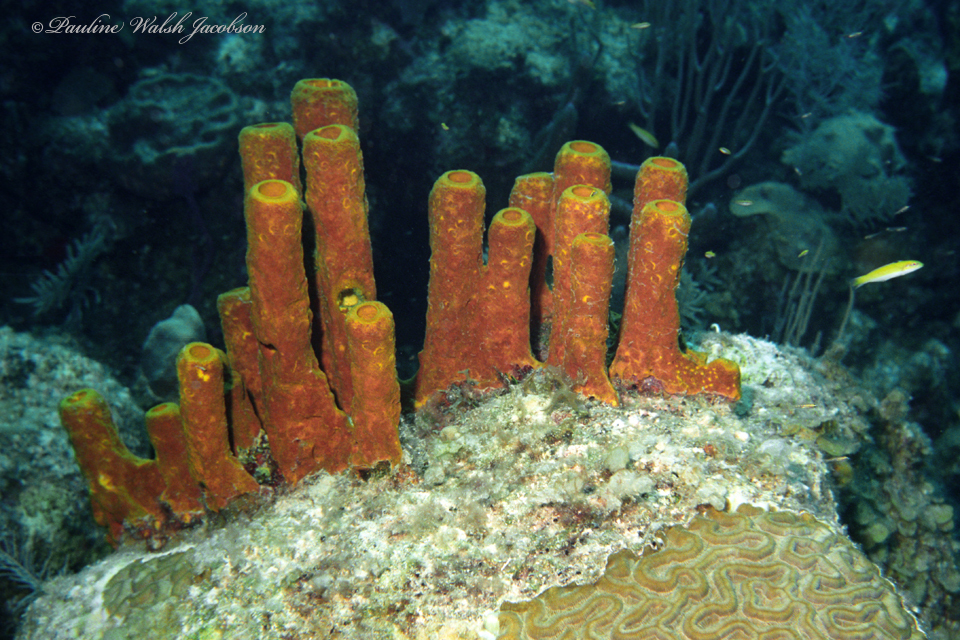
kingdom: Animalia
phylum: Porifera
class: Demospongiae
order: Verongiida
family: Aplysinidae
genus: Aplysina
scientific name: Aplysina fistularis
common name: Candle sponge
